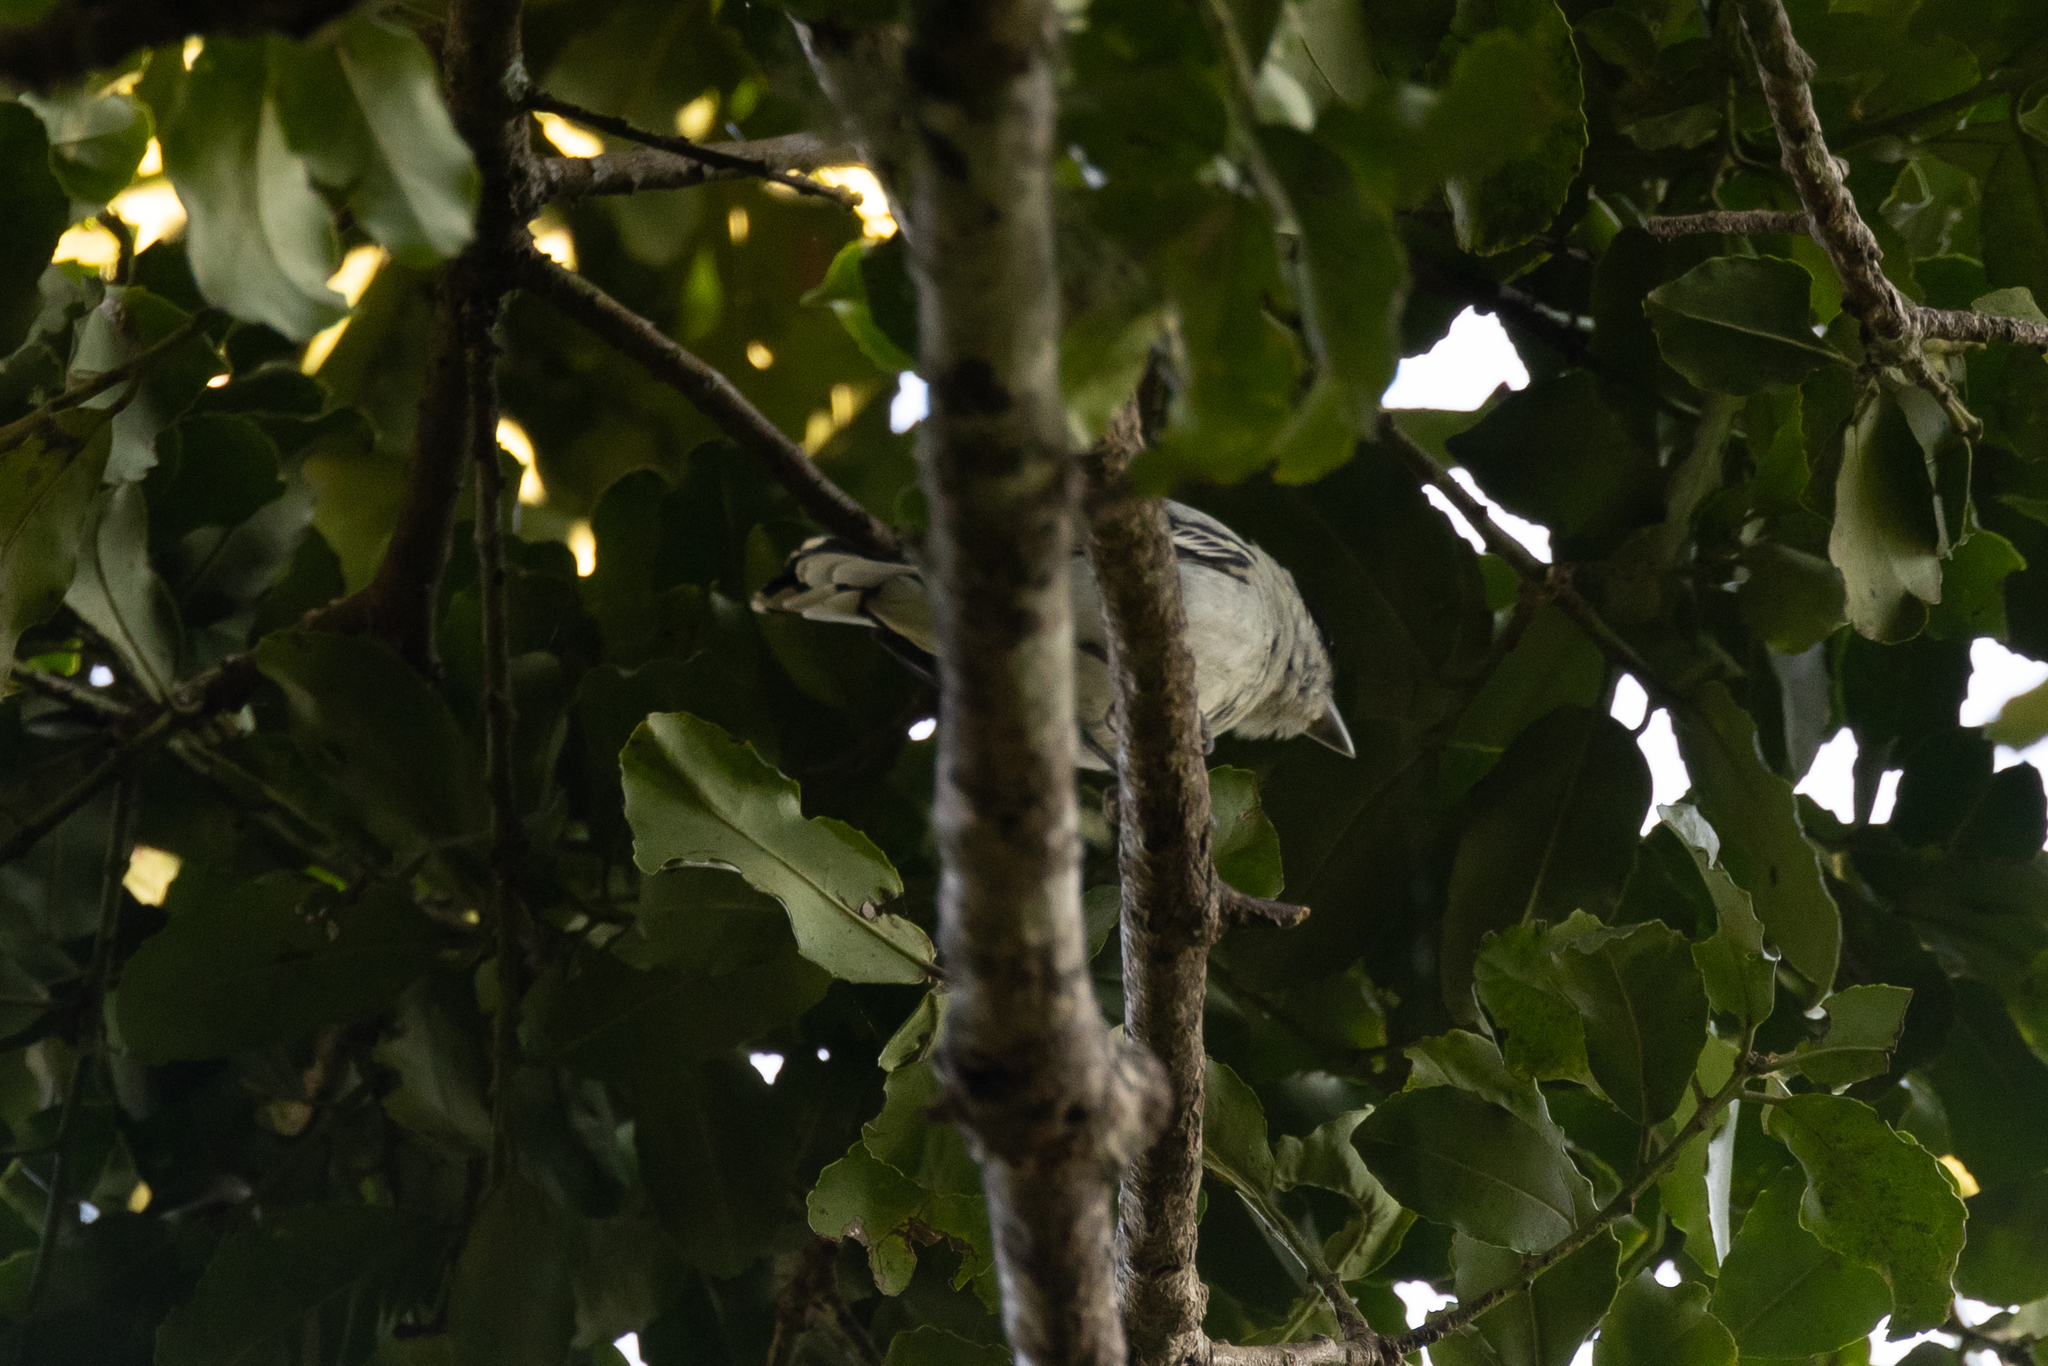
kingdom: Animalia
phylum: Chordata
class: Aves
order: Passeriformes
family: Cotingidae
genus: Pachyramphus
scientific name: Pachyramphus major
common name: Gray-collared becard
